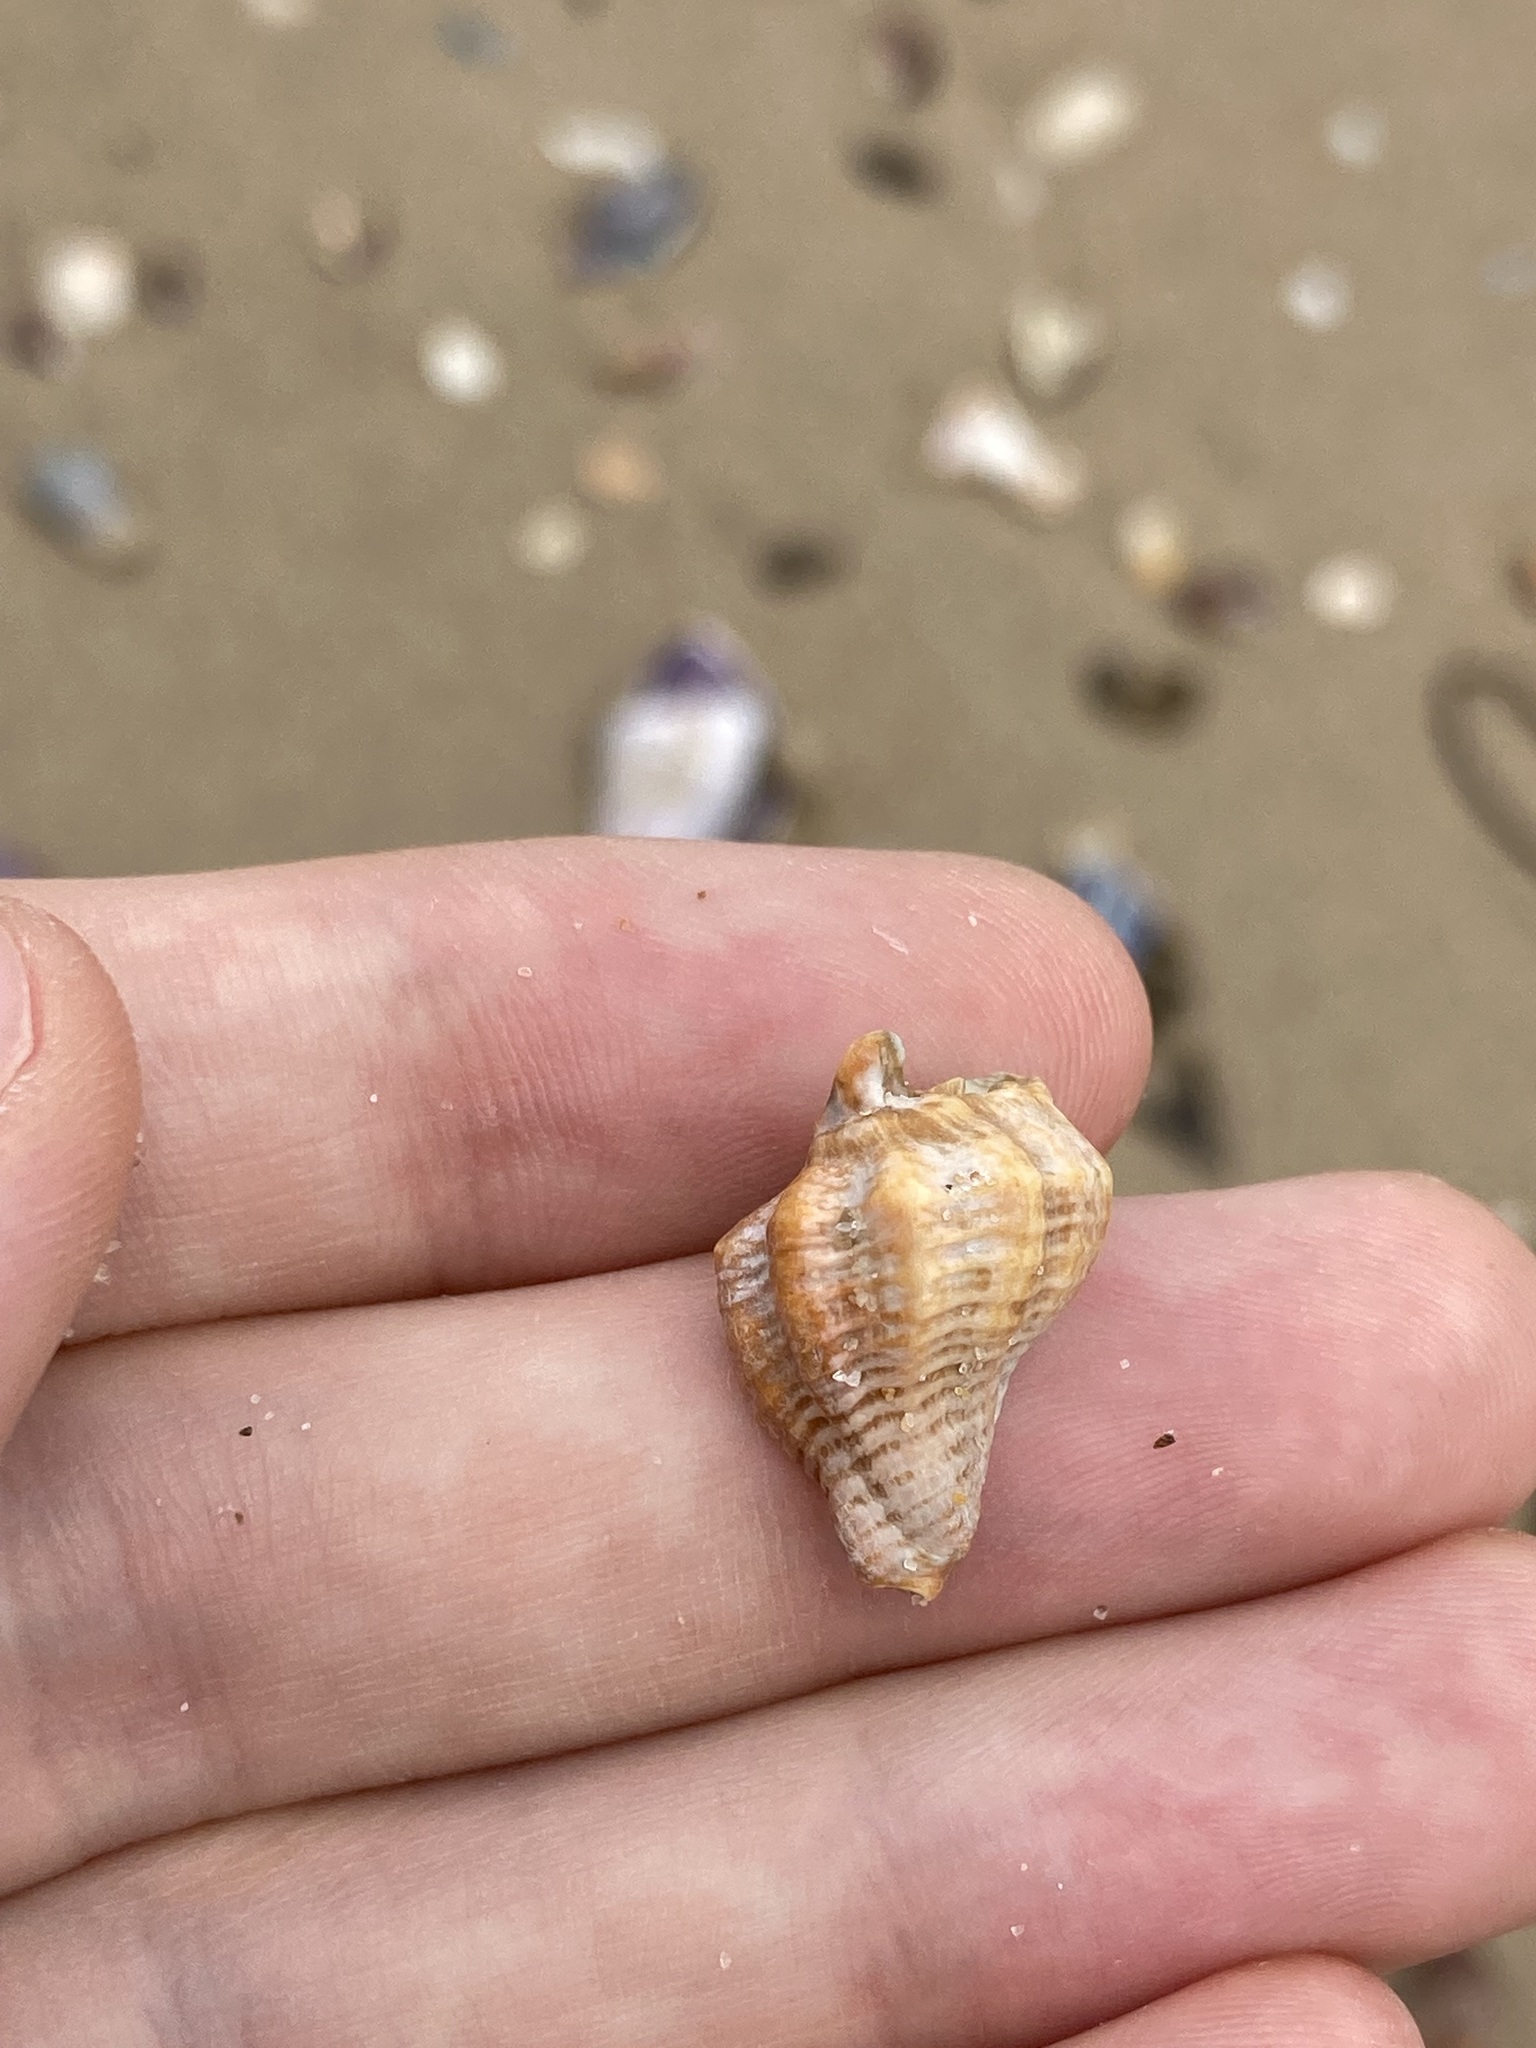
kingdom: Animalia
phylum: Mollusca
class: Gastropoda
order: Neogastropoda
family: Muricidae
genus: Bedeva
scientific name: Bedeva paivae
